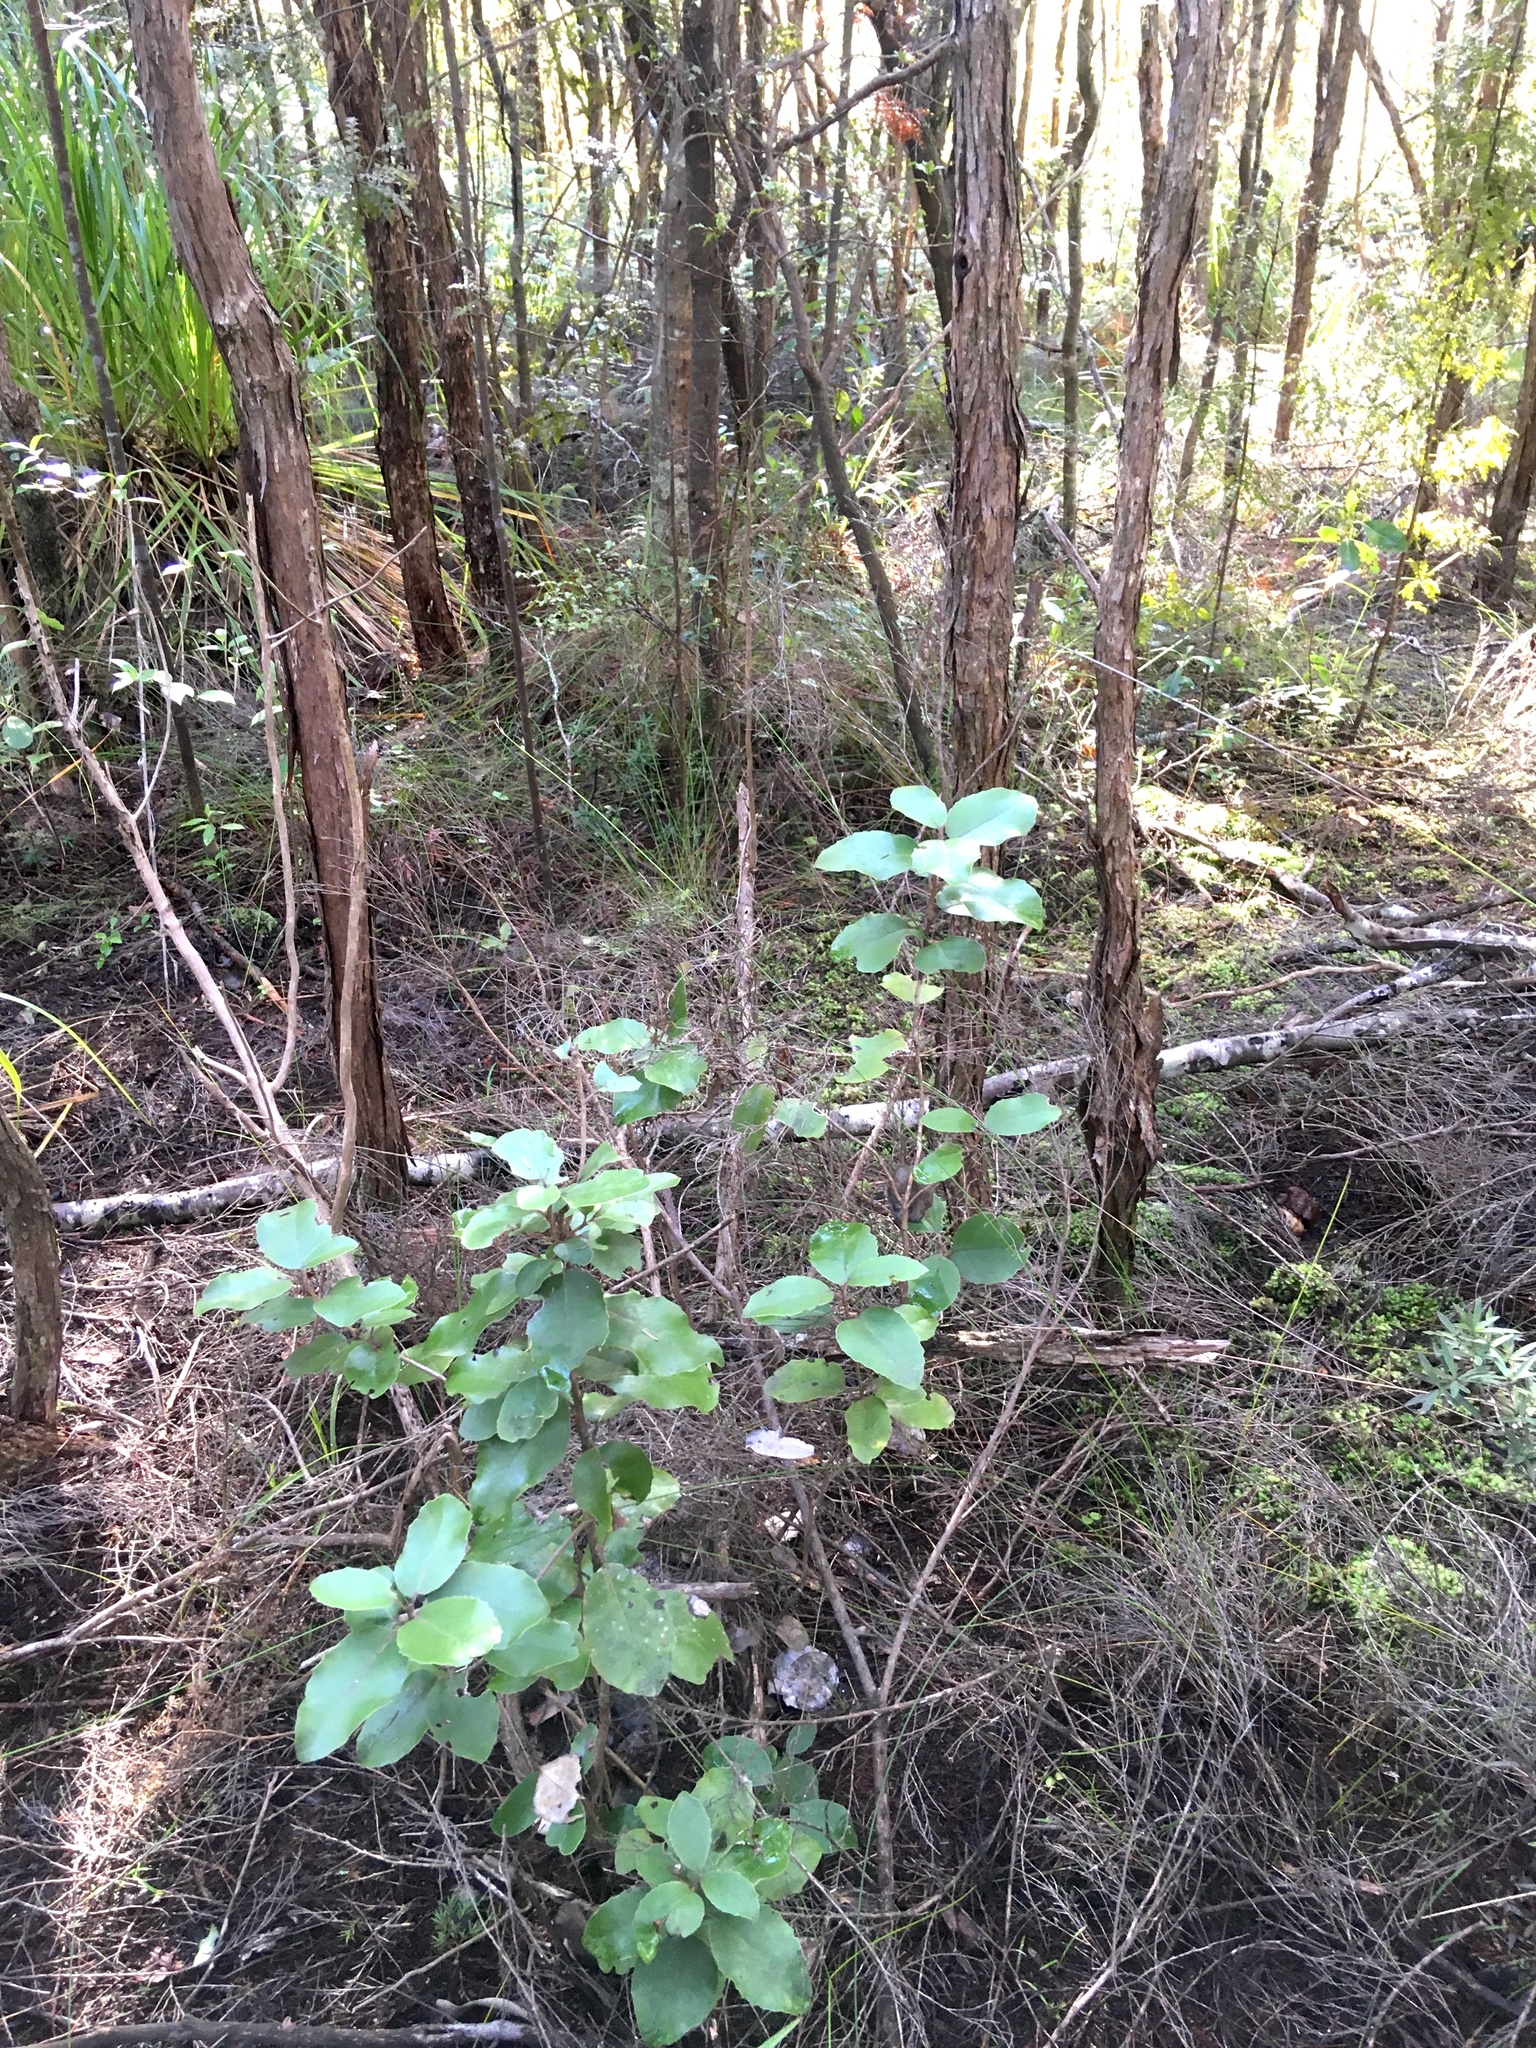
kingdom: Plantae
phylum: Bryophyta
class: Bryopsida
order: Dicranales
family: Leucobryaceae
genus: Leucobryum
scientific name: Leucobryum javense
